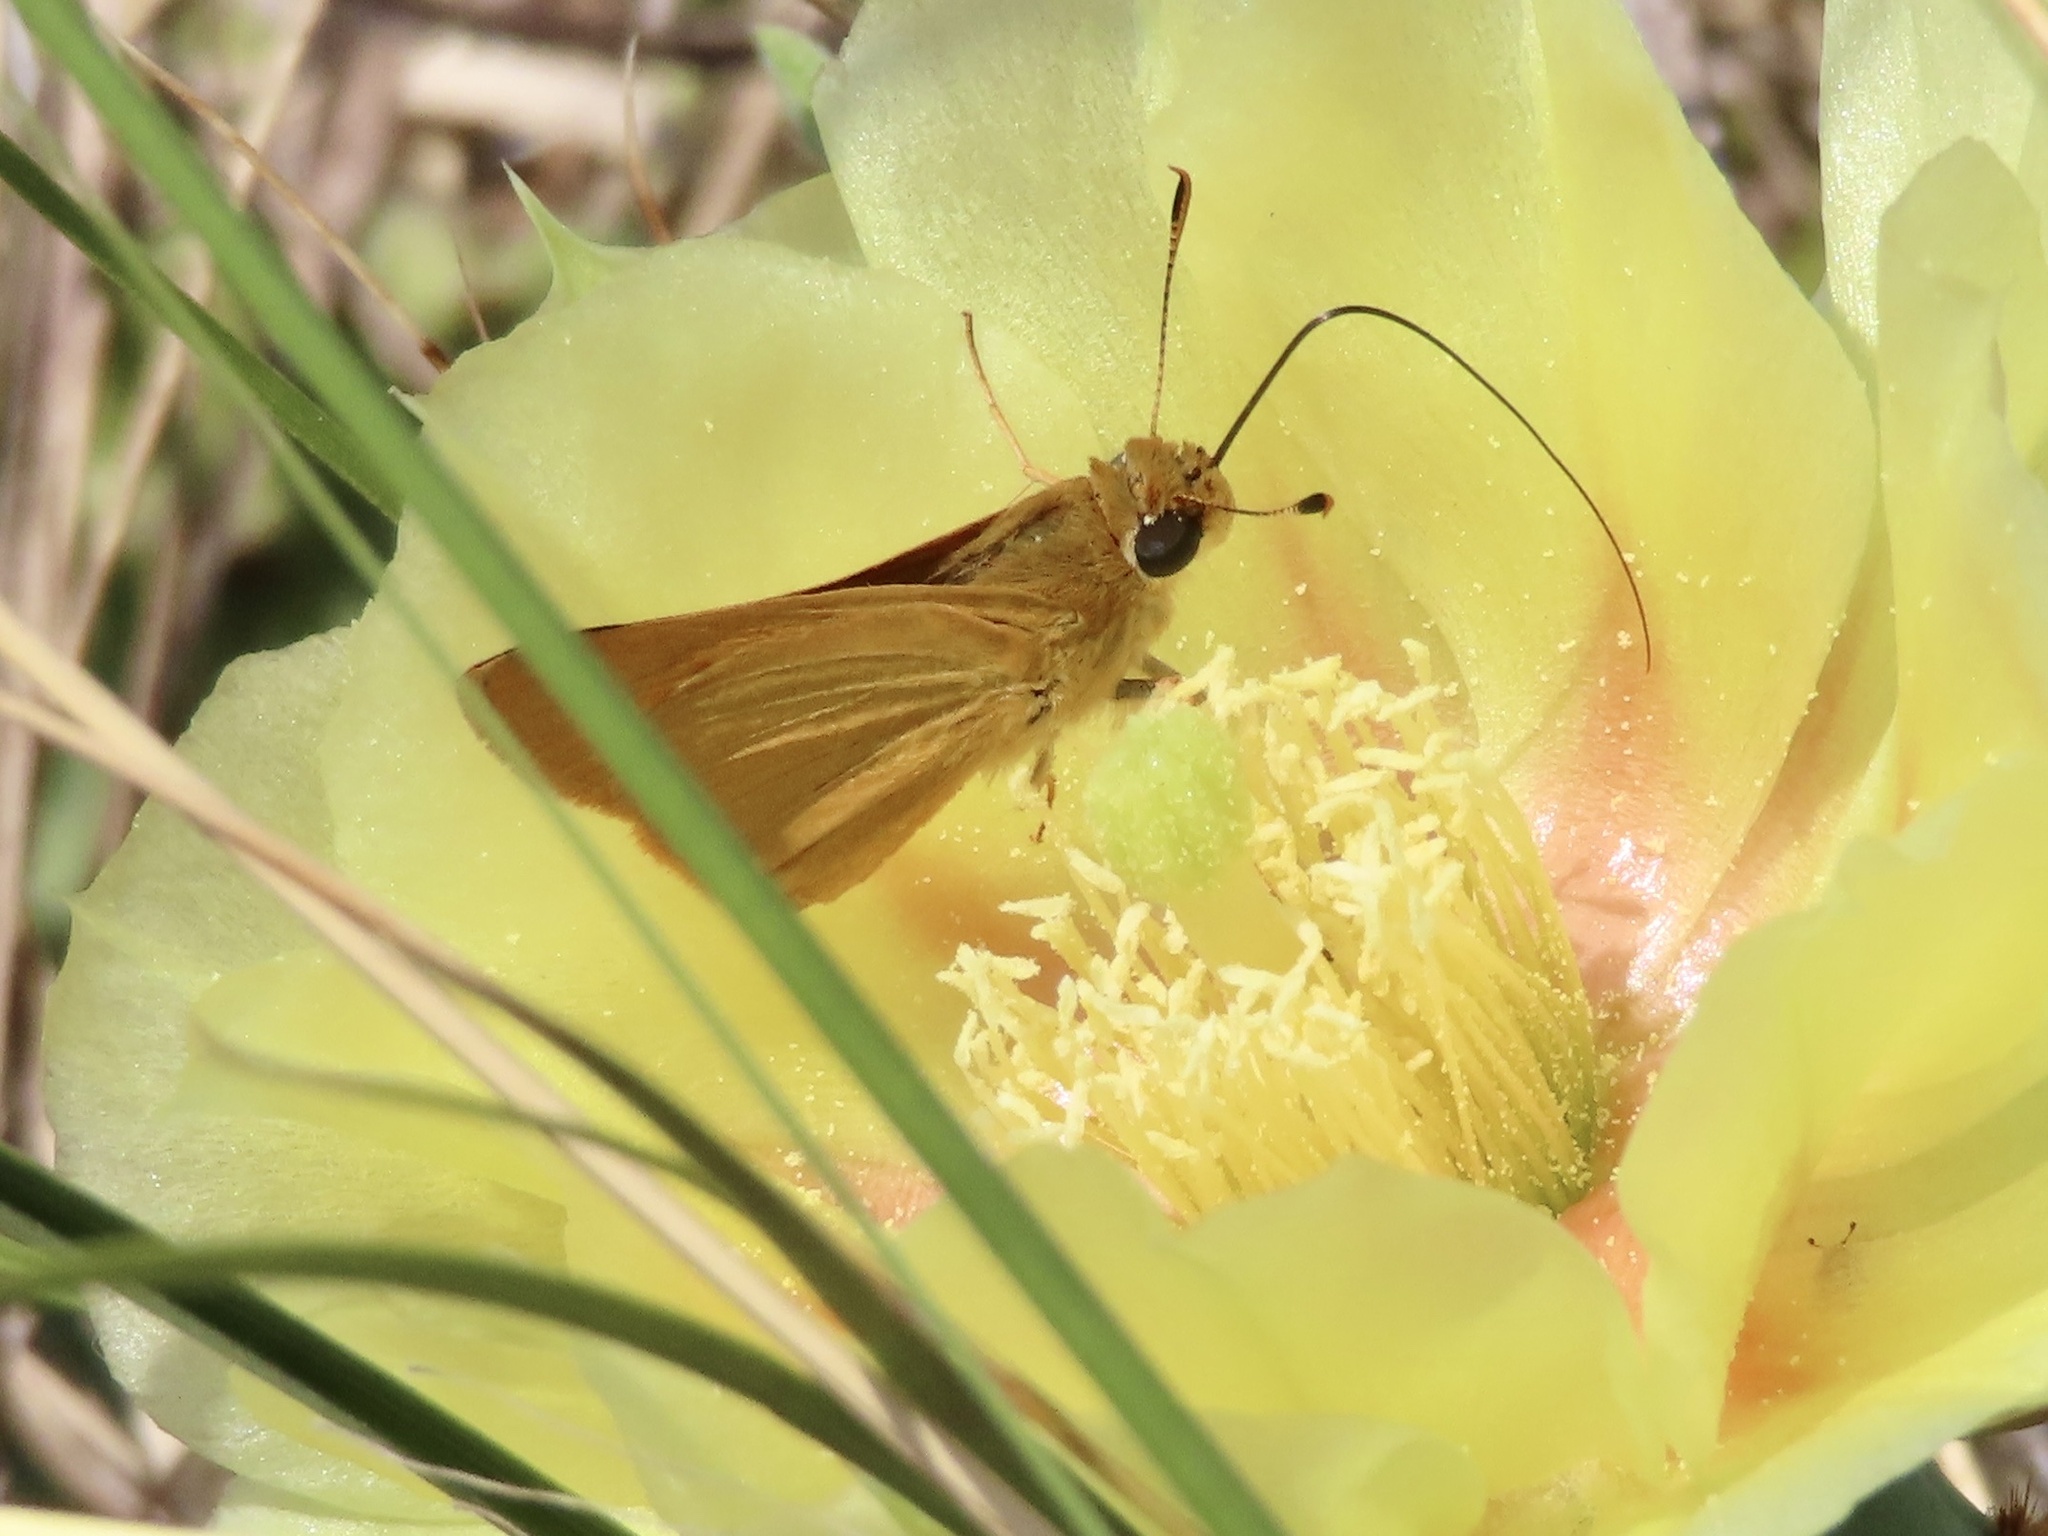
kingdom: Animalia
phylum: Arthropoda
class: Insecta
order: Lepidoptera
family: Hesperiidae
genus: Atrytone
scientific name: Atrytone delaware
